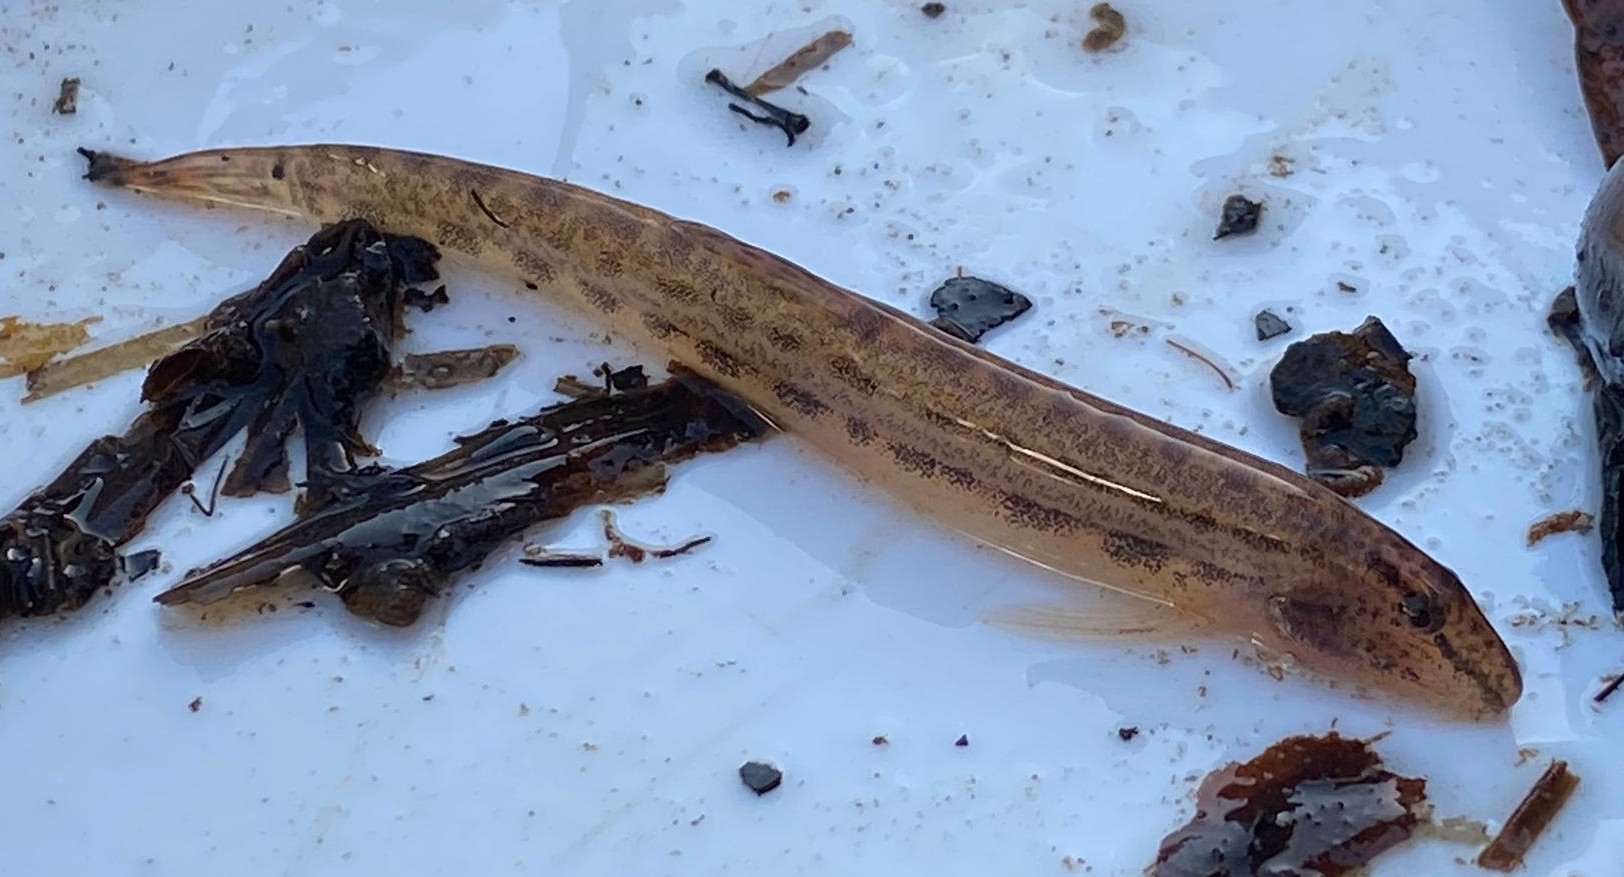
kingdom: Animalia
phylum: Chordata
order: Cypriniformes
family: Cobitidae
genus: Cobitis
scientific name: Cobitis taenia
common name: Spined loach
